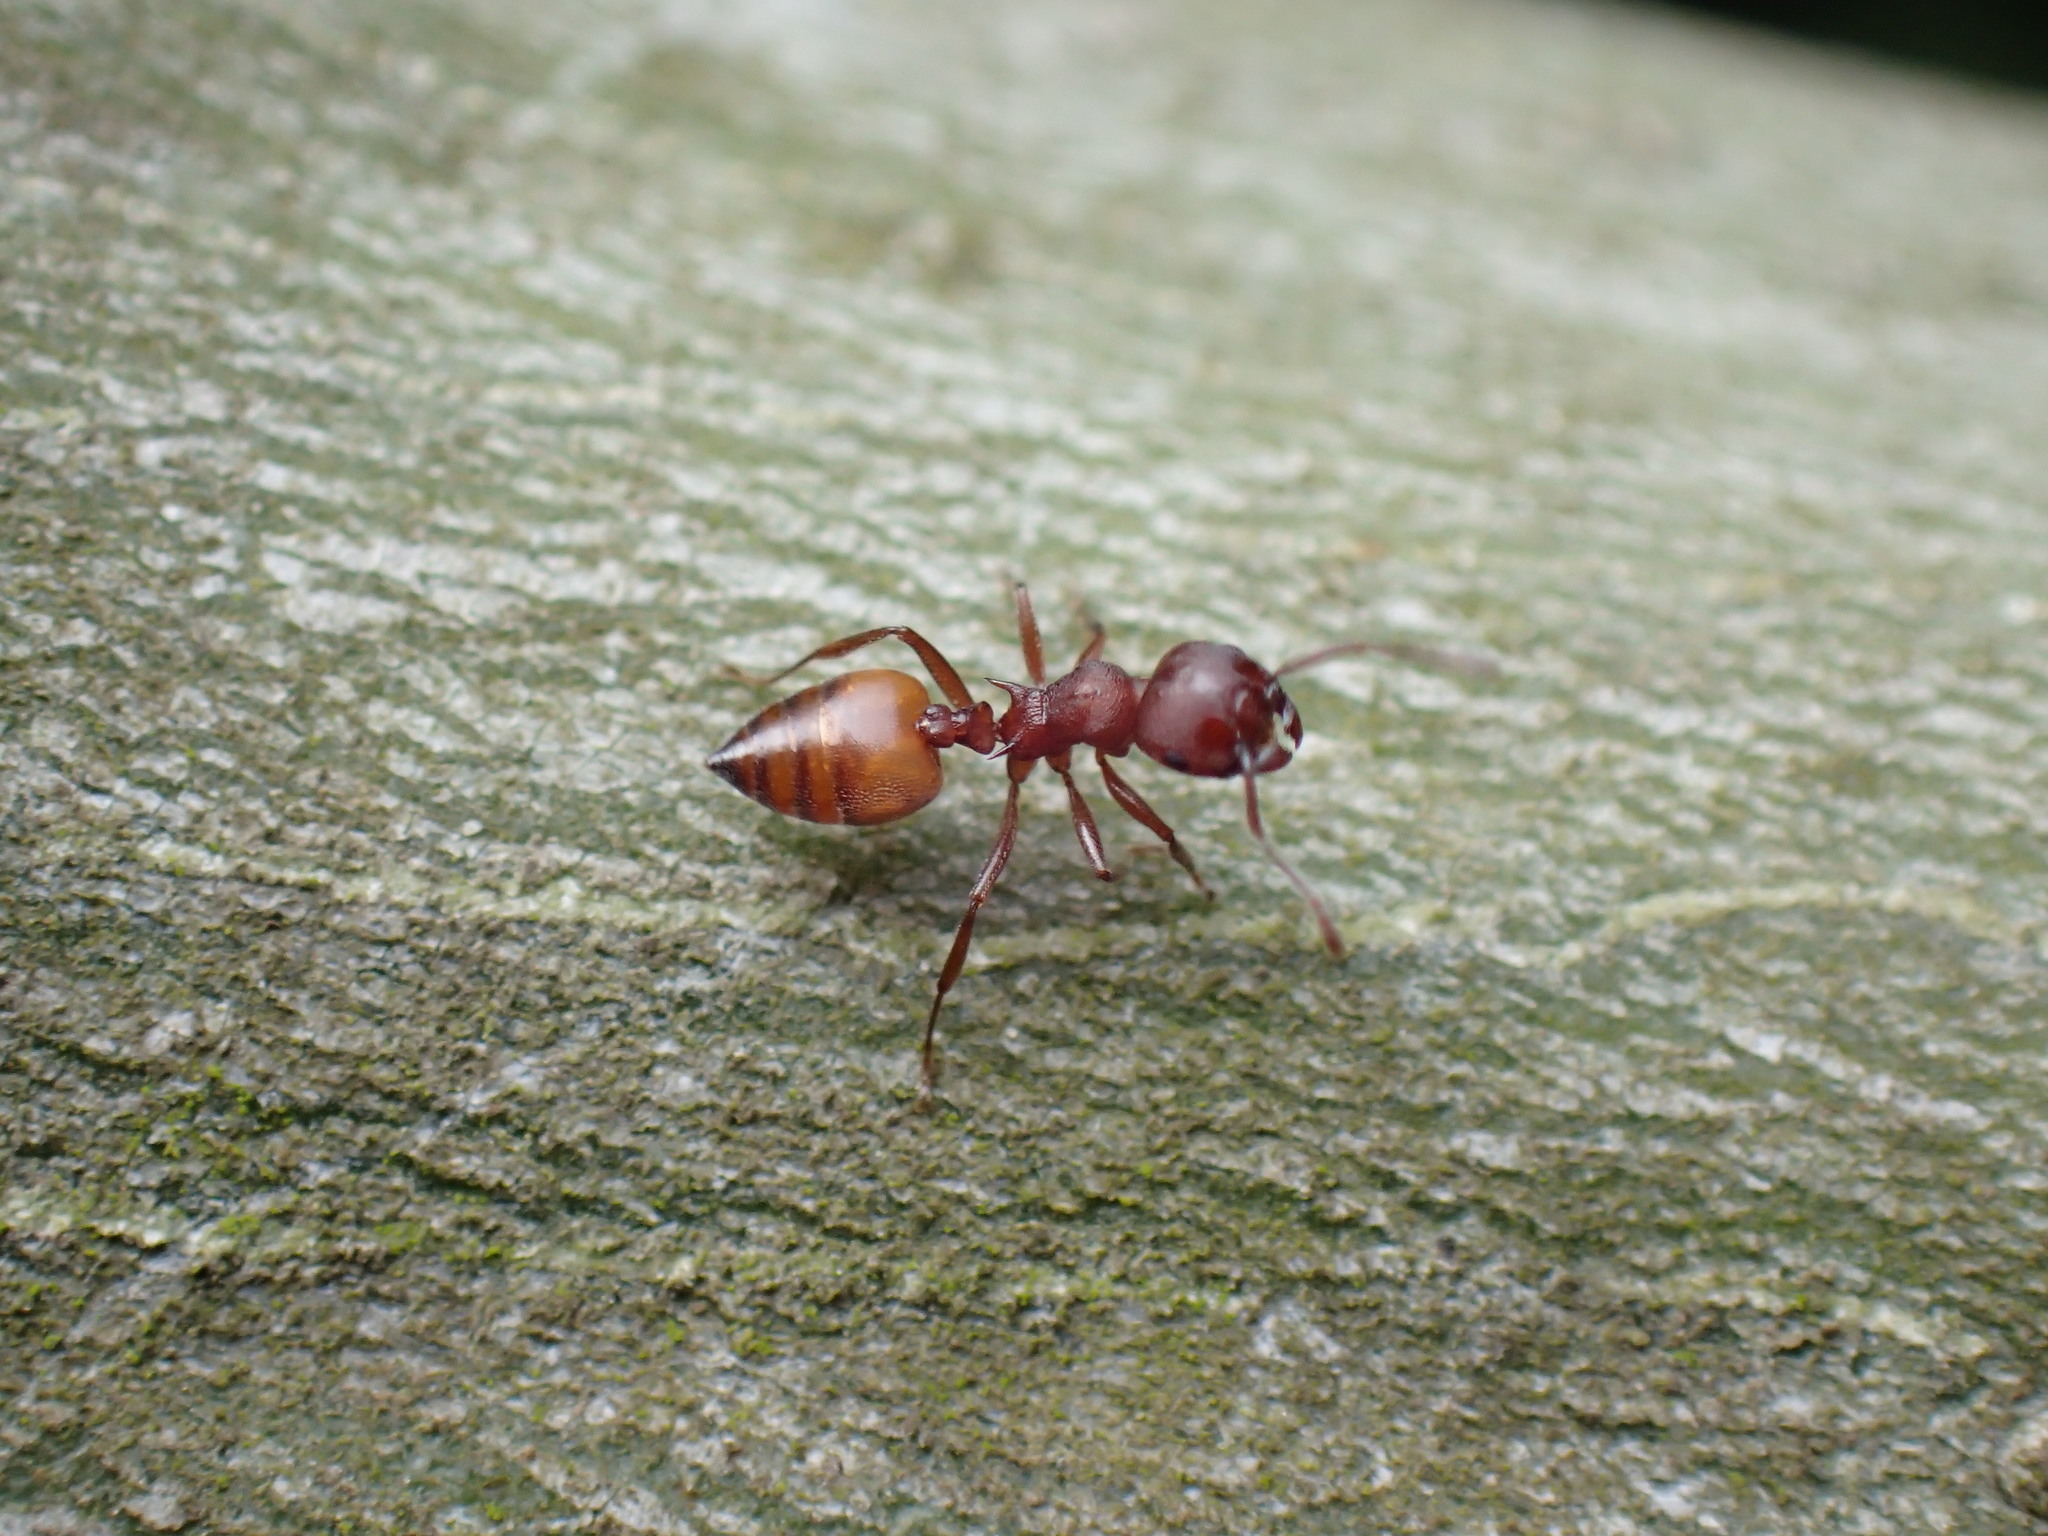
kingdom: Animalia
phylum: Arthropoda
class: Insecta
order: Hymenoptera
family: Formicidae
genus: Crematogaster
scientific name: Crematogaster castanea
